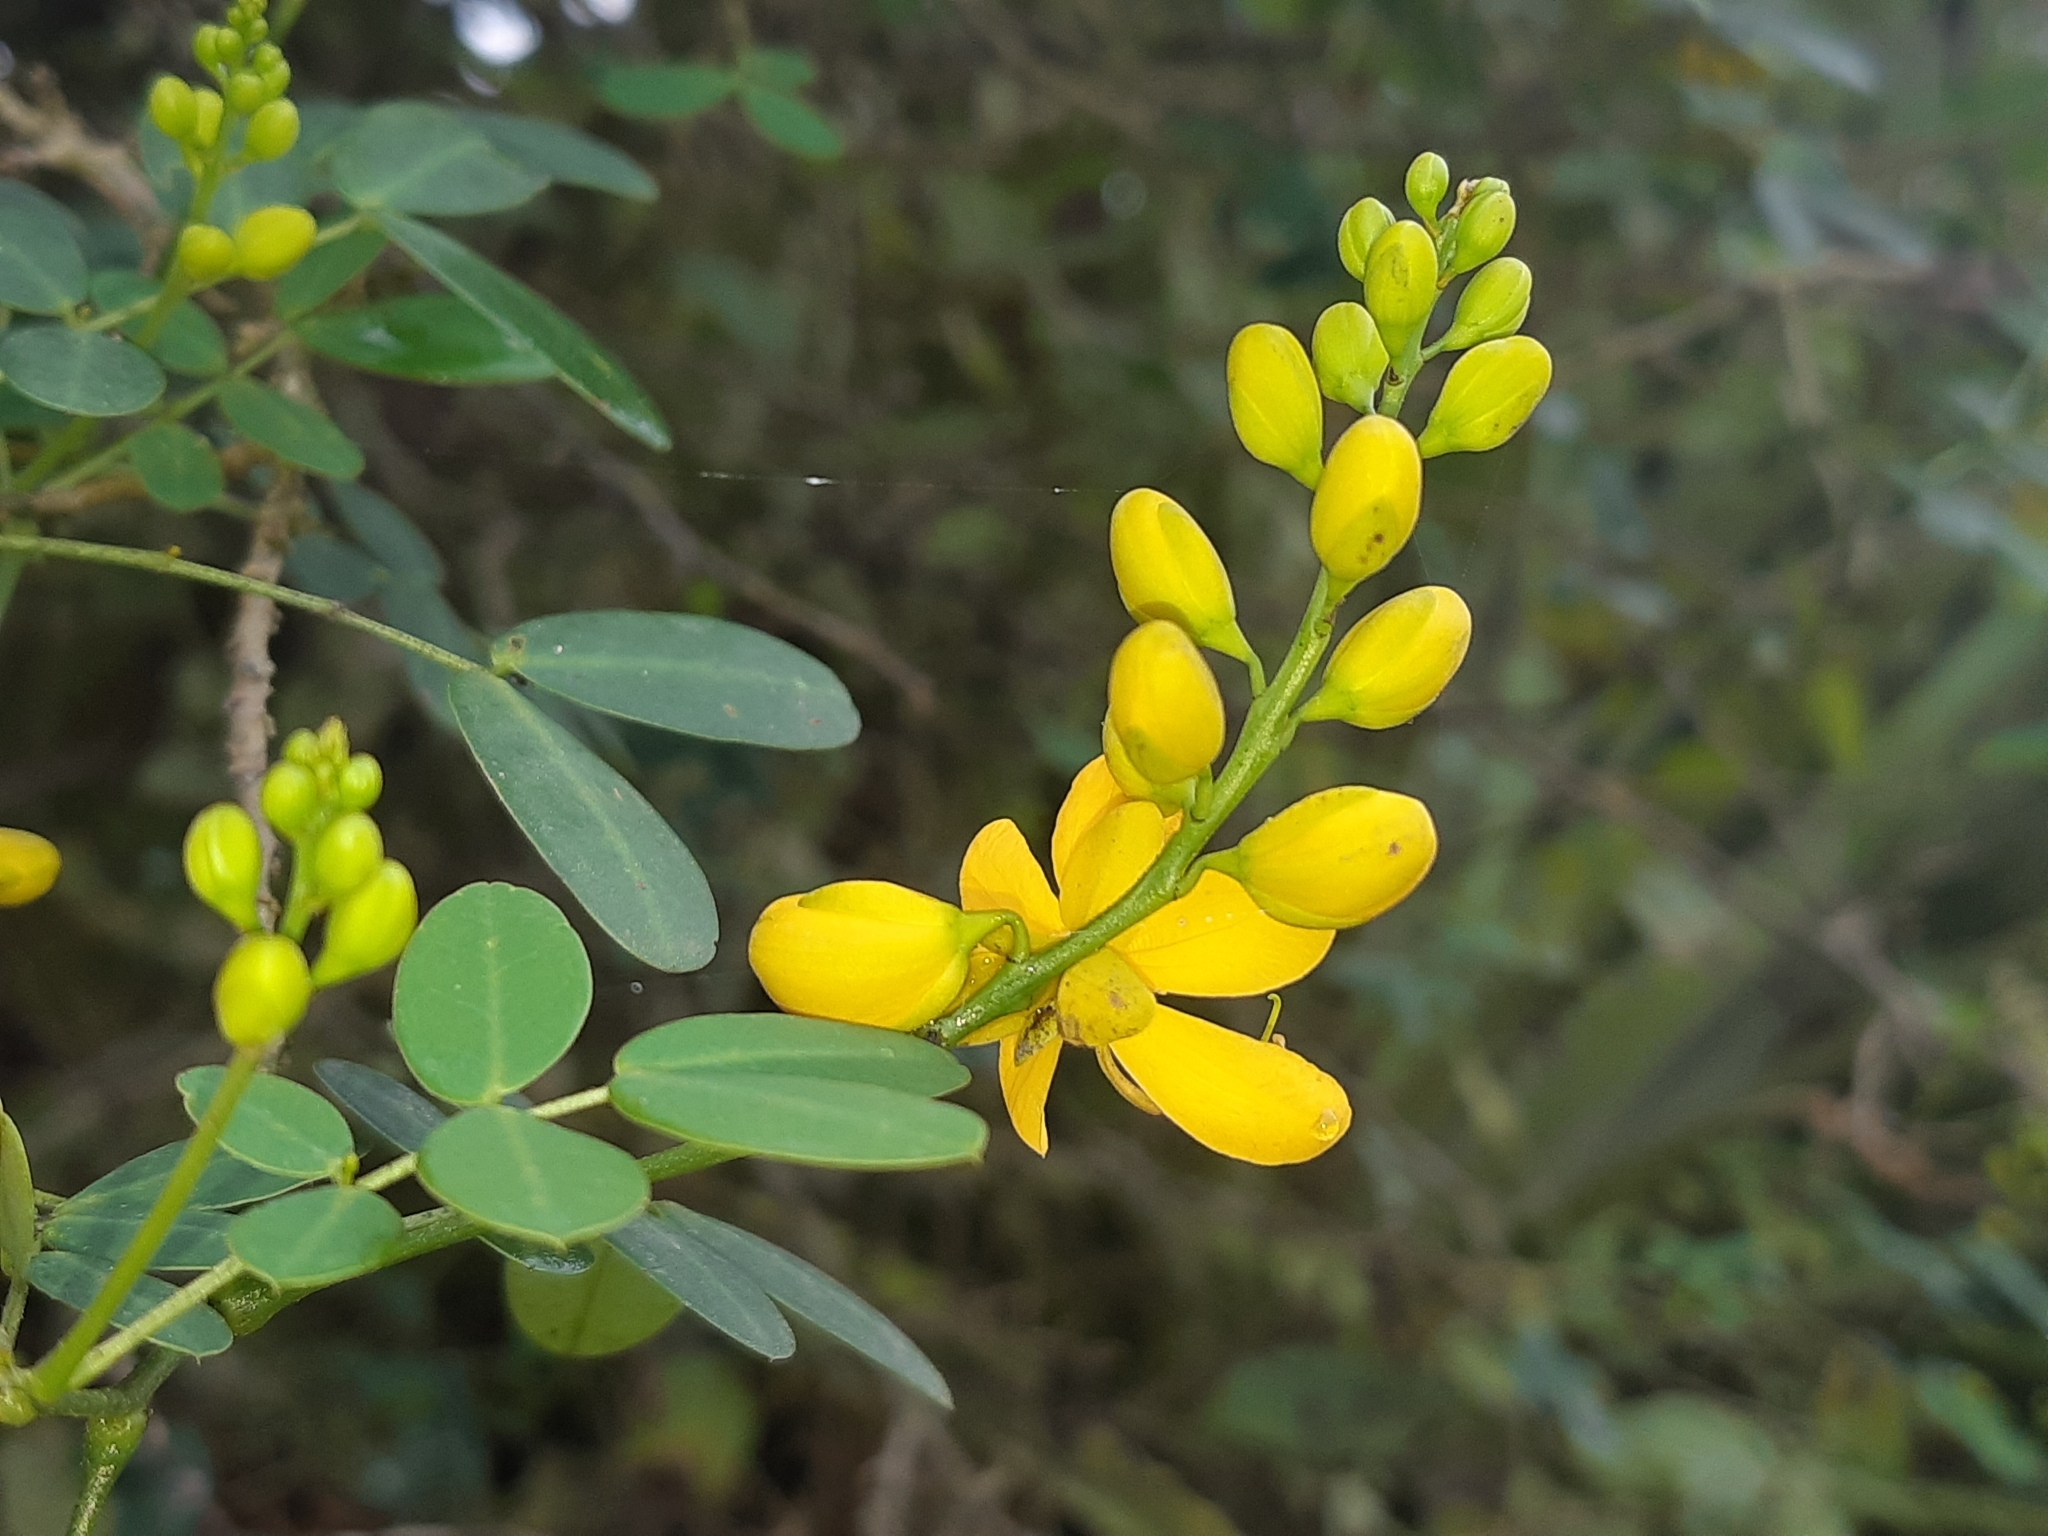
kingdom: Plantae
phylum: Tracheophyta
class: Magnoliopsida
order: Fabales
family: Fabaceae
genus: Senna
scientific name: Senna bicapsularis
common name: Christmasbush
